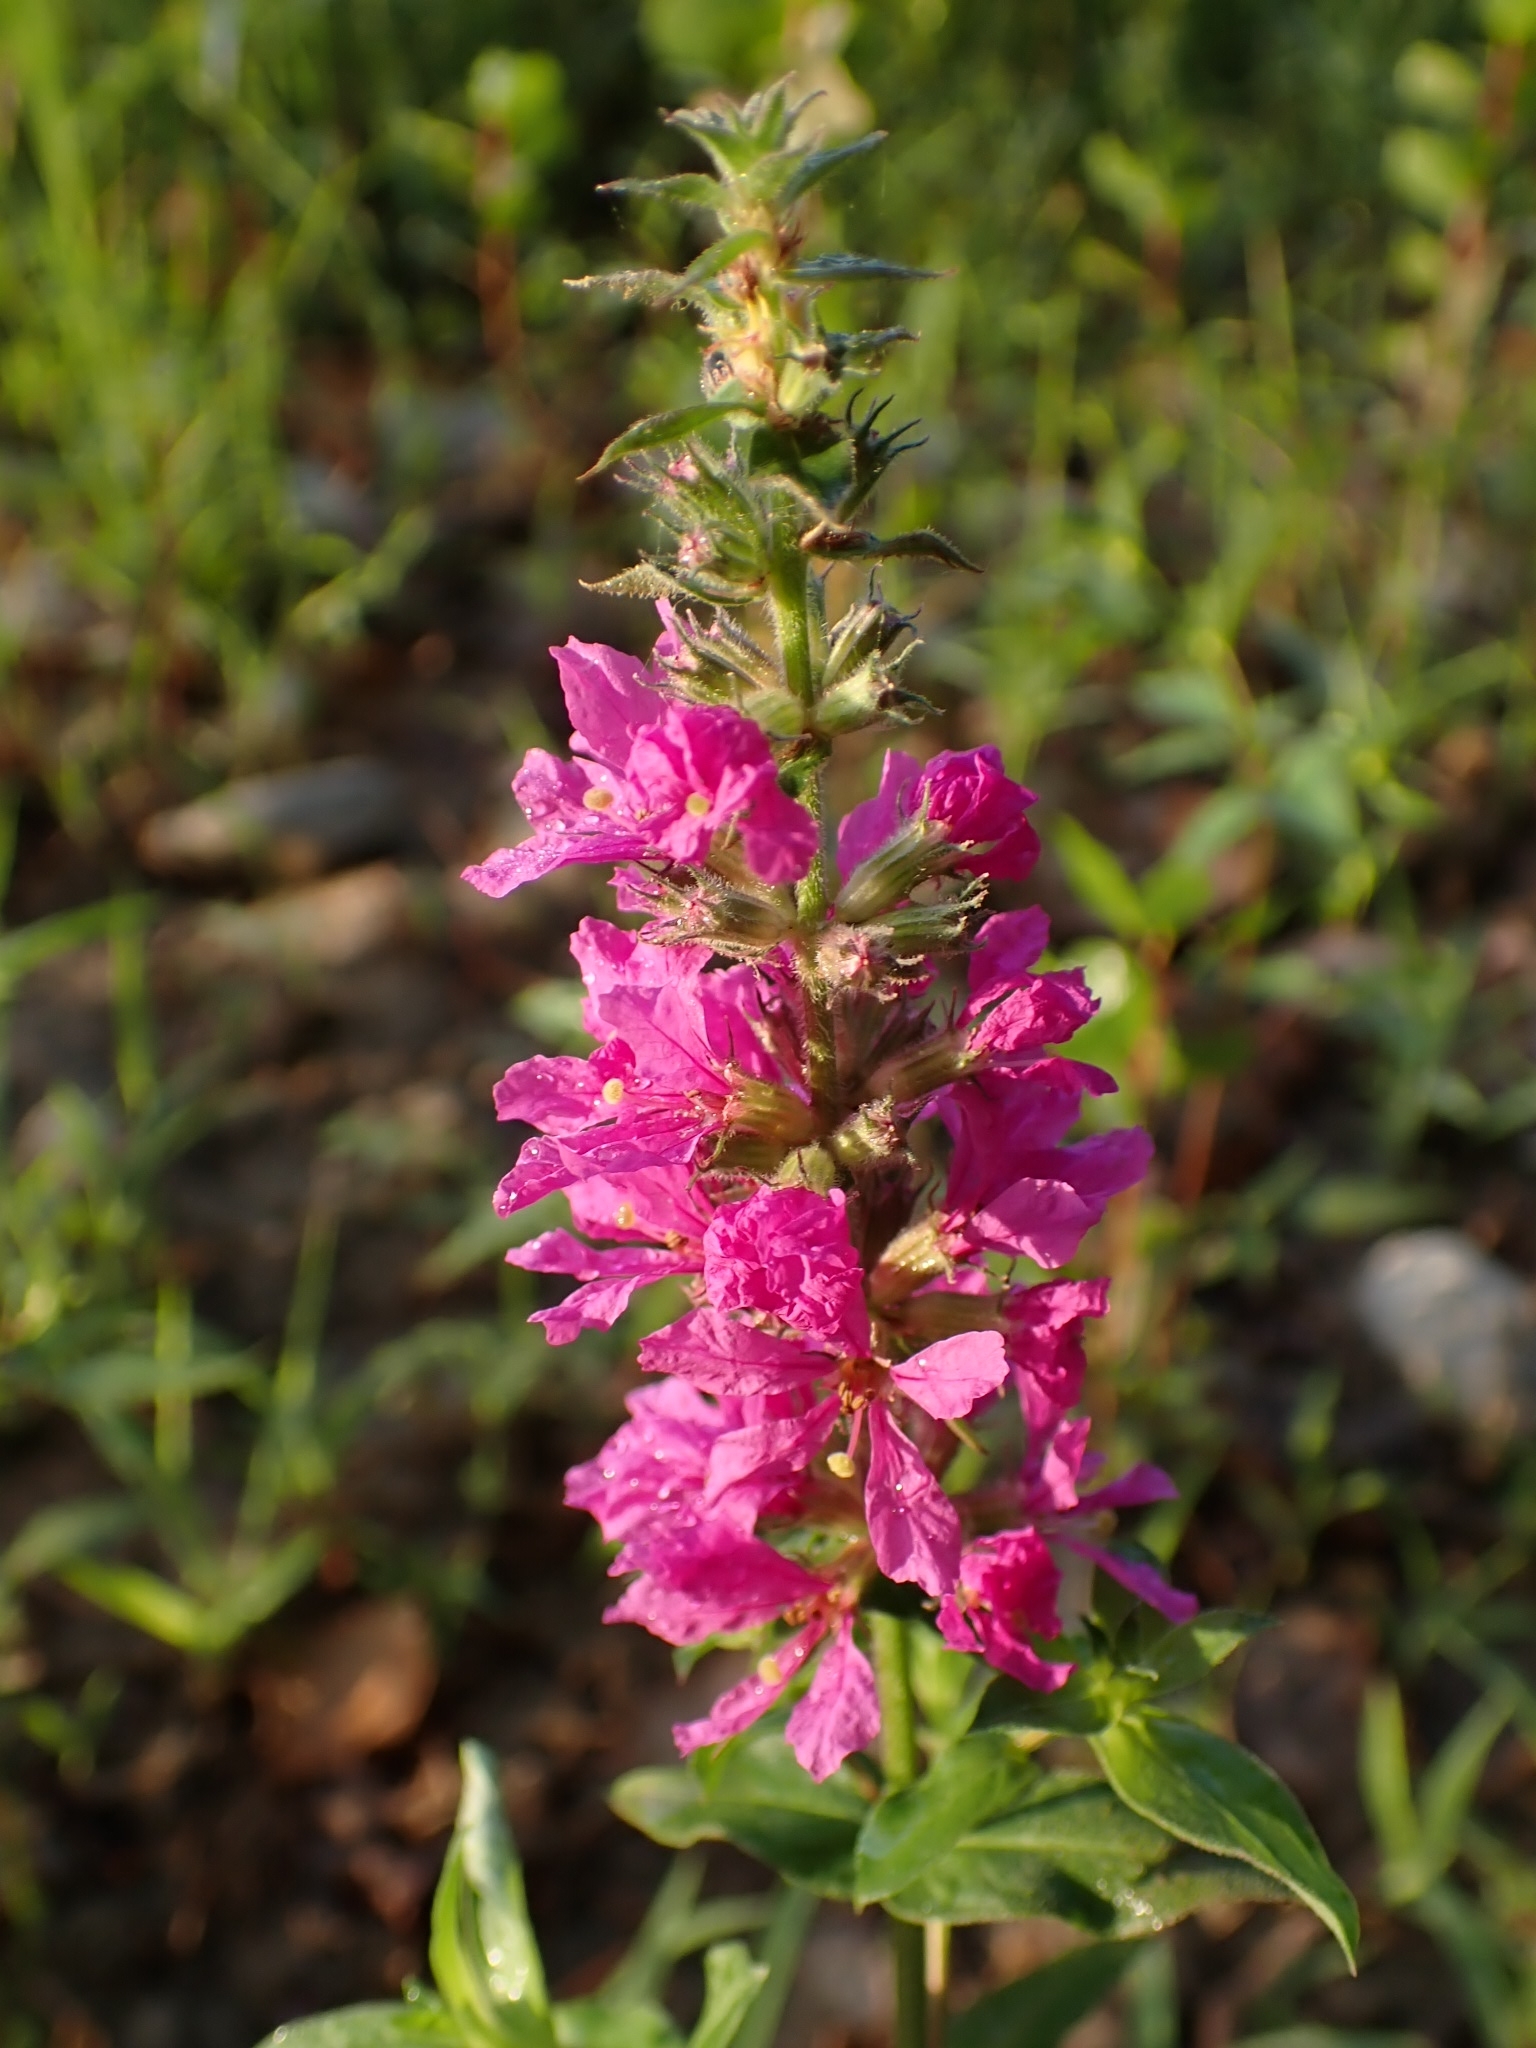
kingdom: Plantae
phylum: Tracheophyta
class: Magnoliopsida
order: Myrtales
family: Lythraceae
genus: Lythrum
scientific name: Lythrum salicaria
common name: Purple loosestrife
